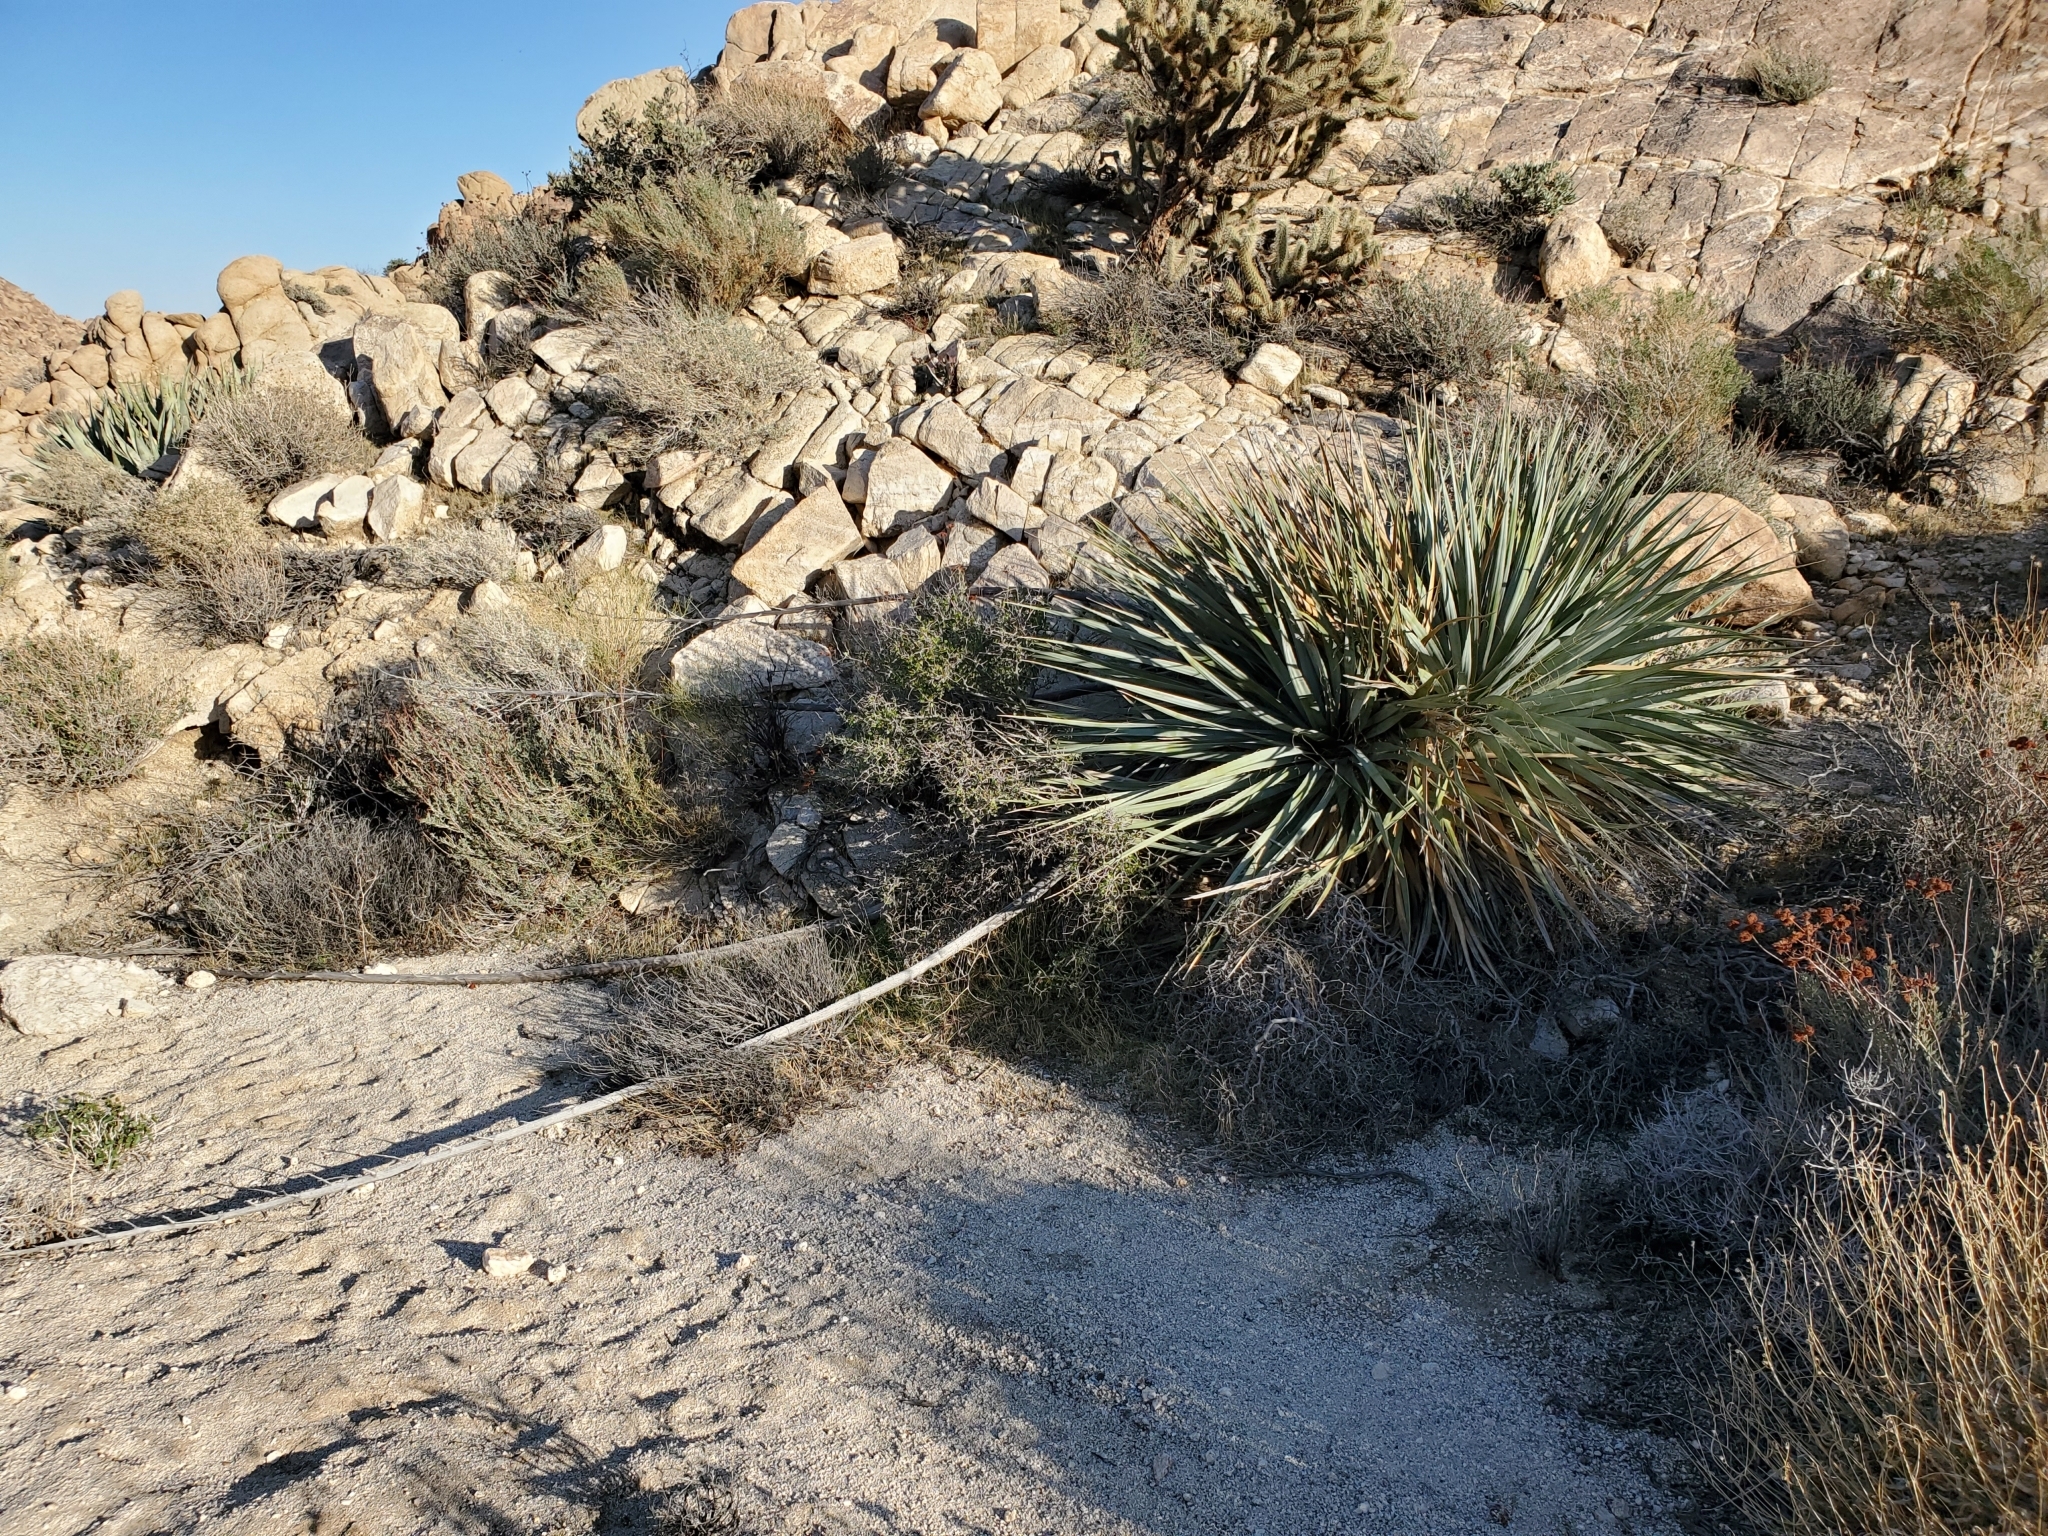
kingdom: Plantae
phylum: Tracheophyta
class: Liliopsida
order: Asparagales
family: Asparagaceae
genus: Nolina
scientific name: Nolina bigelovii
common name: Bigelow bear-grass
